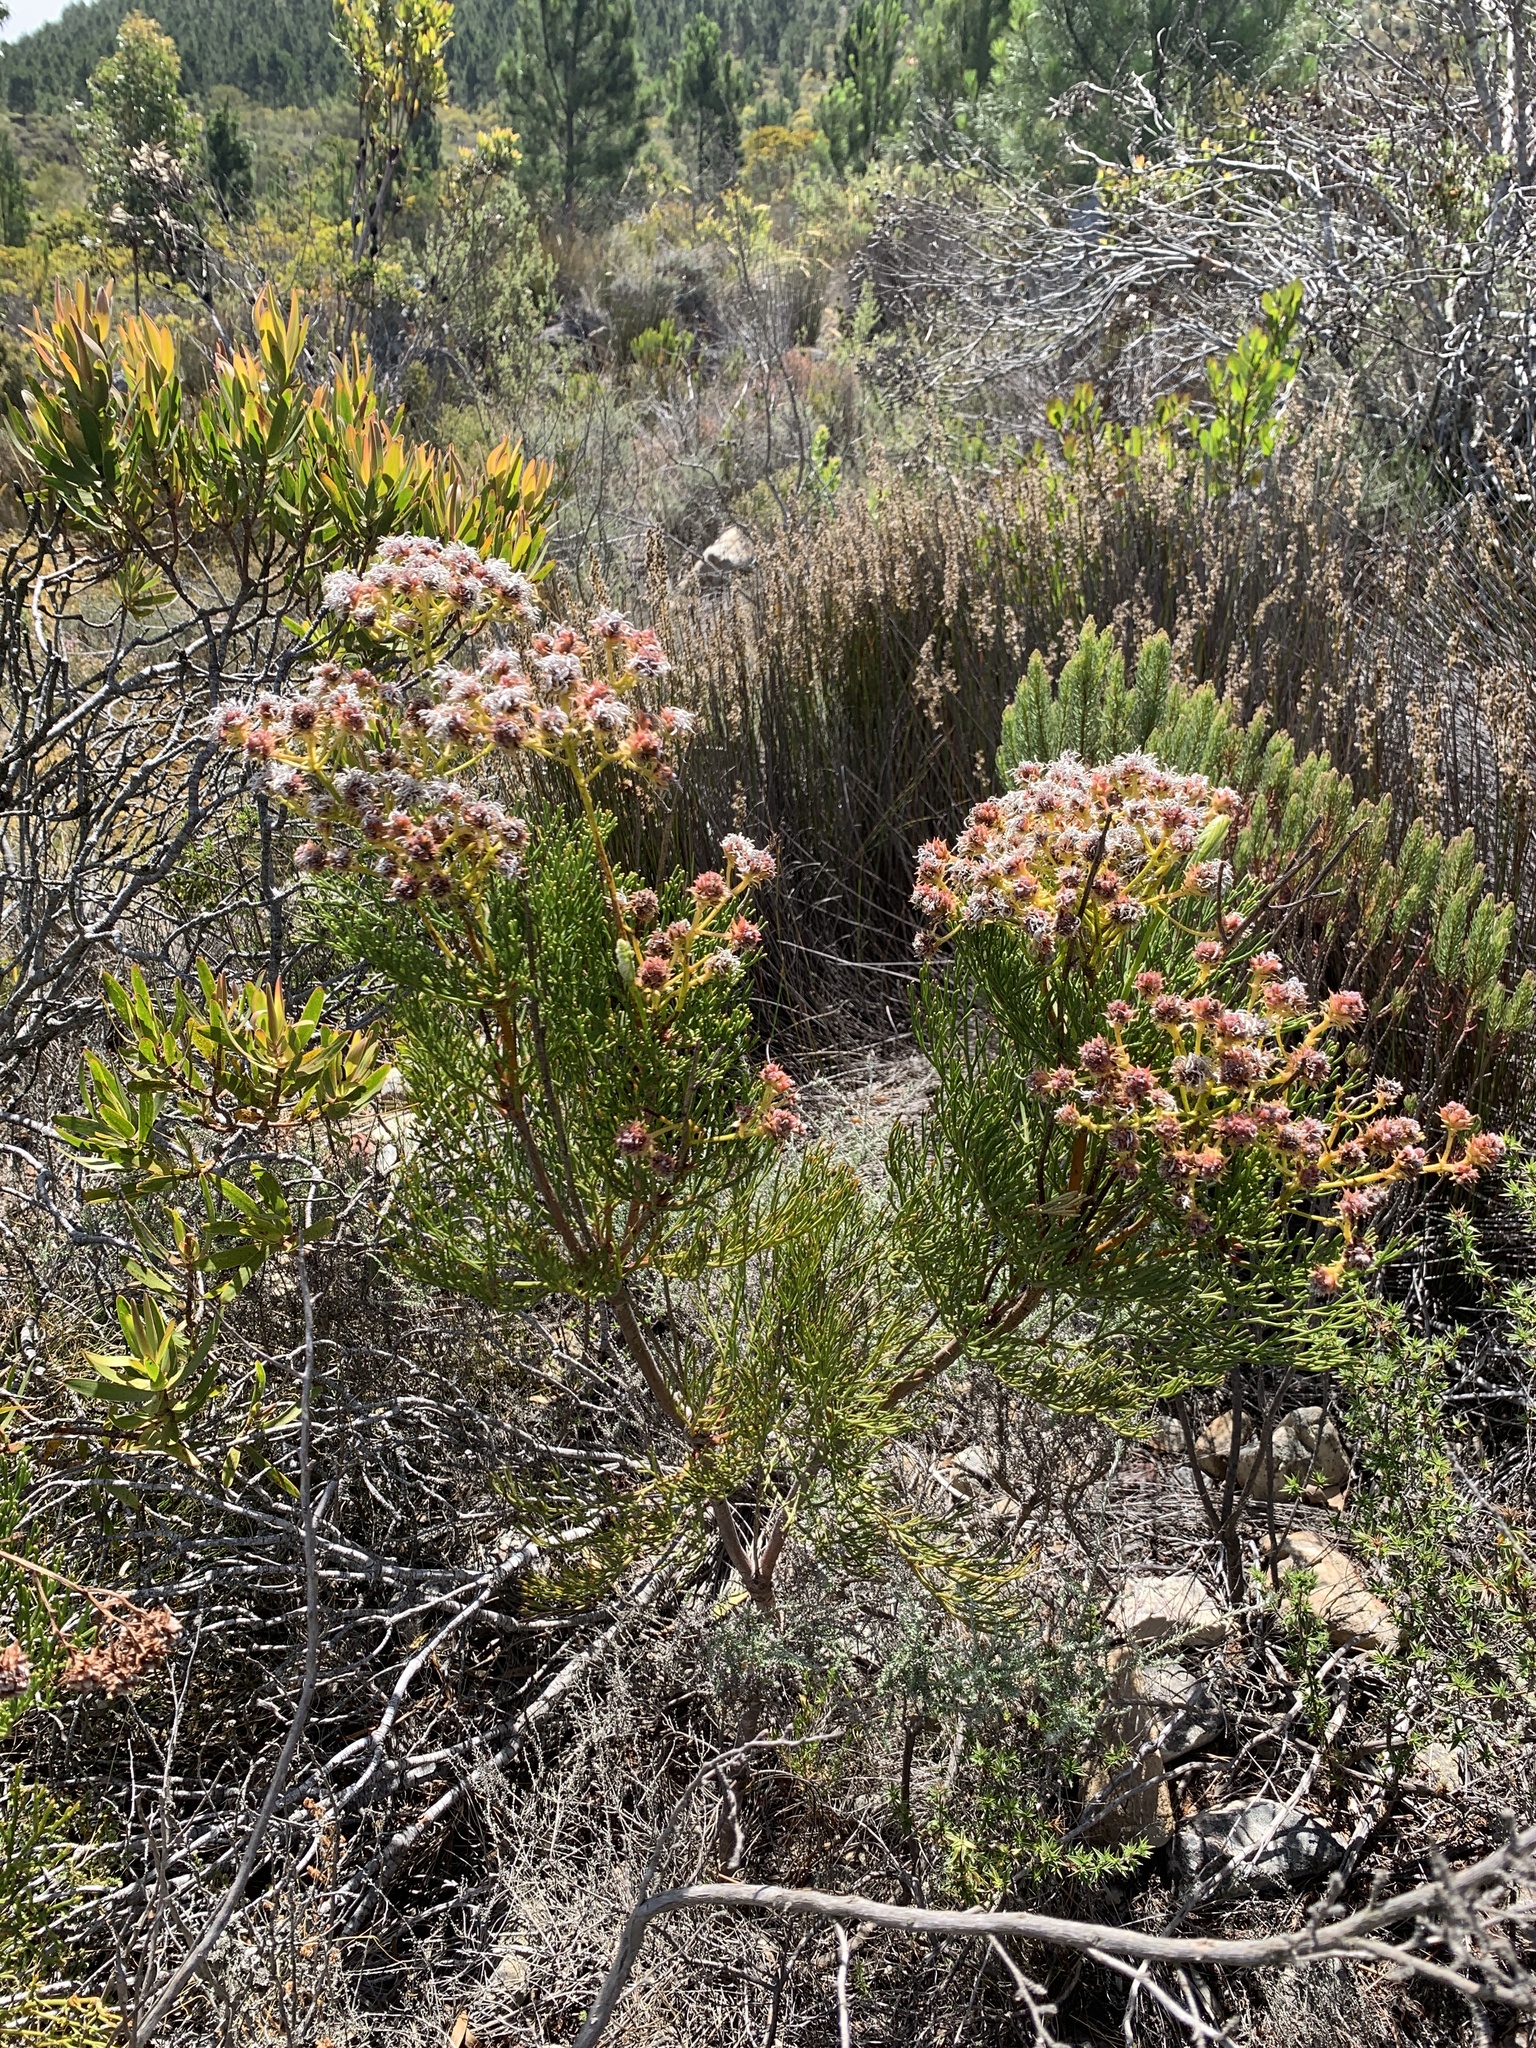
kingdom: Plantae
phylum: Tracheophyta
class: Magnoliopsida
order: Proteales
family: Proteaceae
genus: Serruria
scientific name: Serruria elongata
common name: Long-stalk spiderhead
